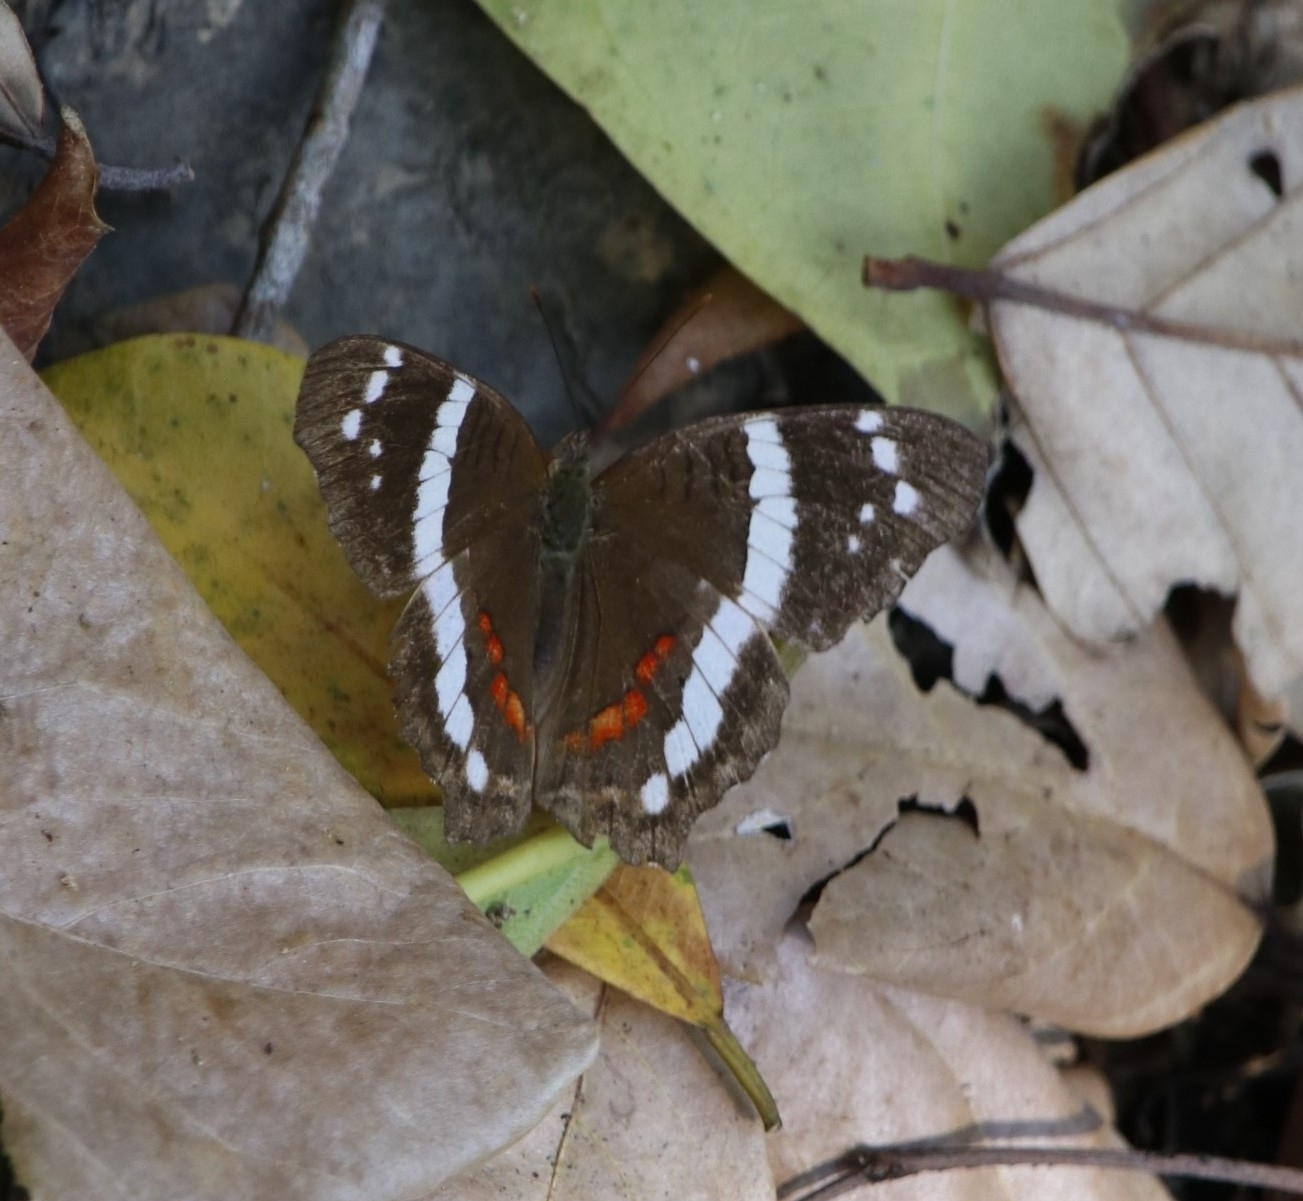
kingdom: Animalia
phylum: Arthropoda
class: Insecta
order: Lepidoptera
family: Nymphalidae
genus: Anartia
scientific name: Anartia fatima
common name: Banded peacock
